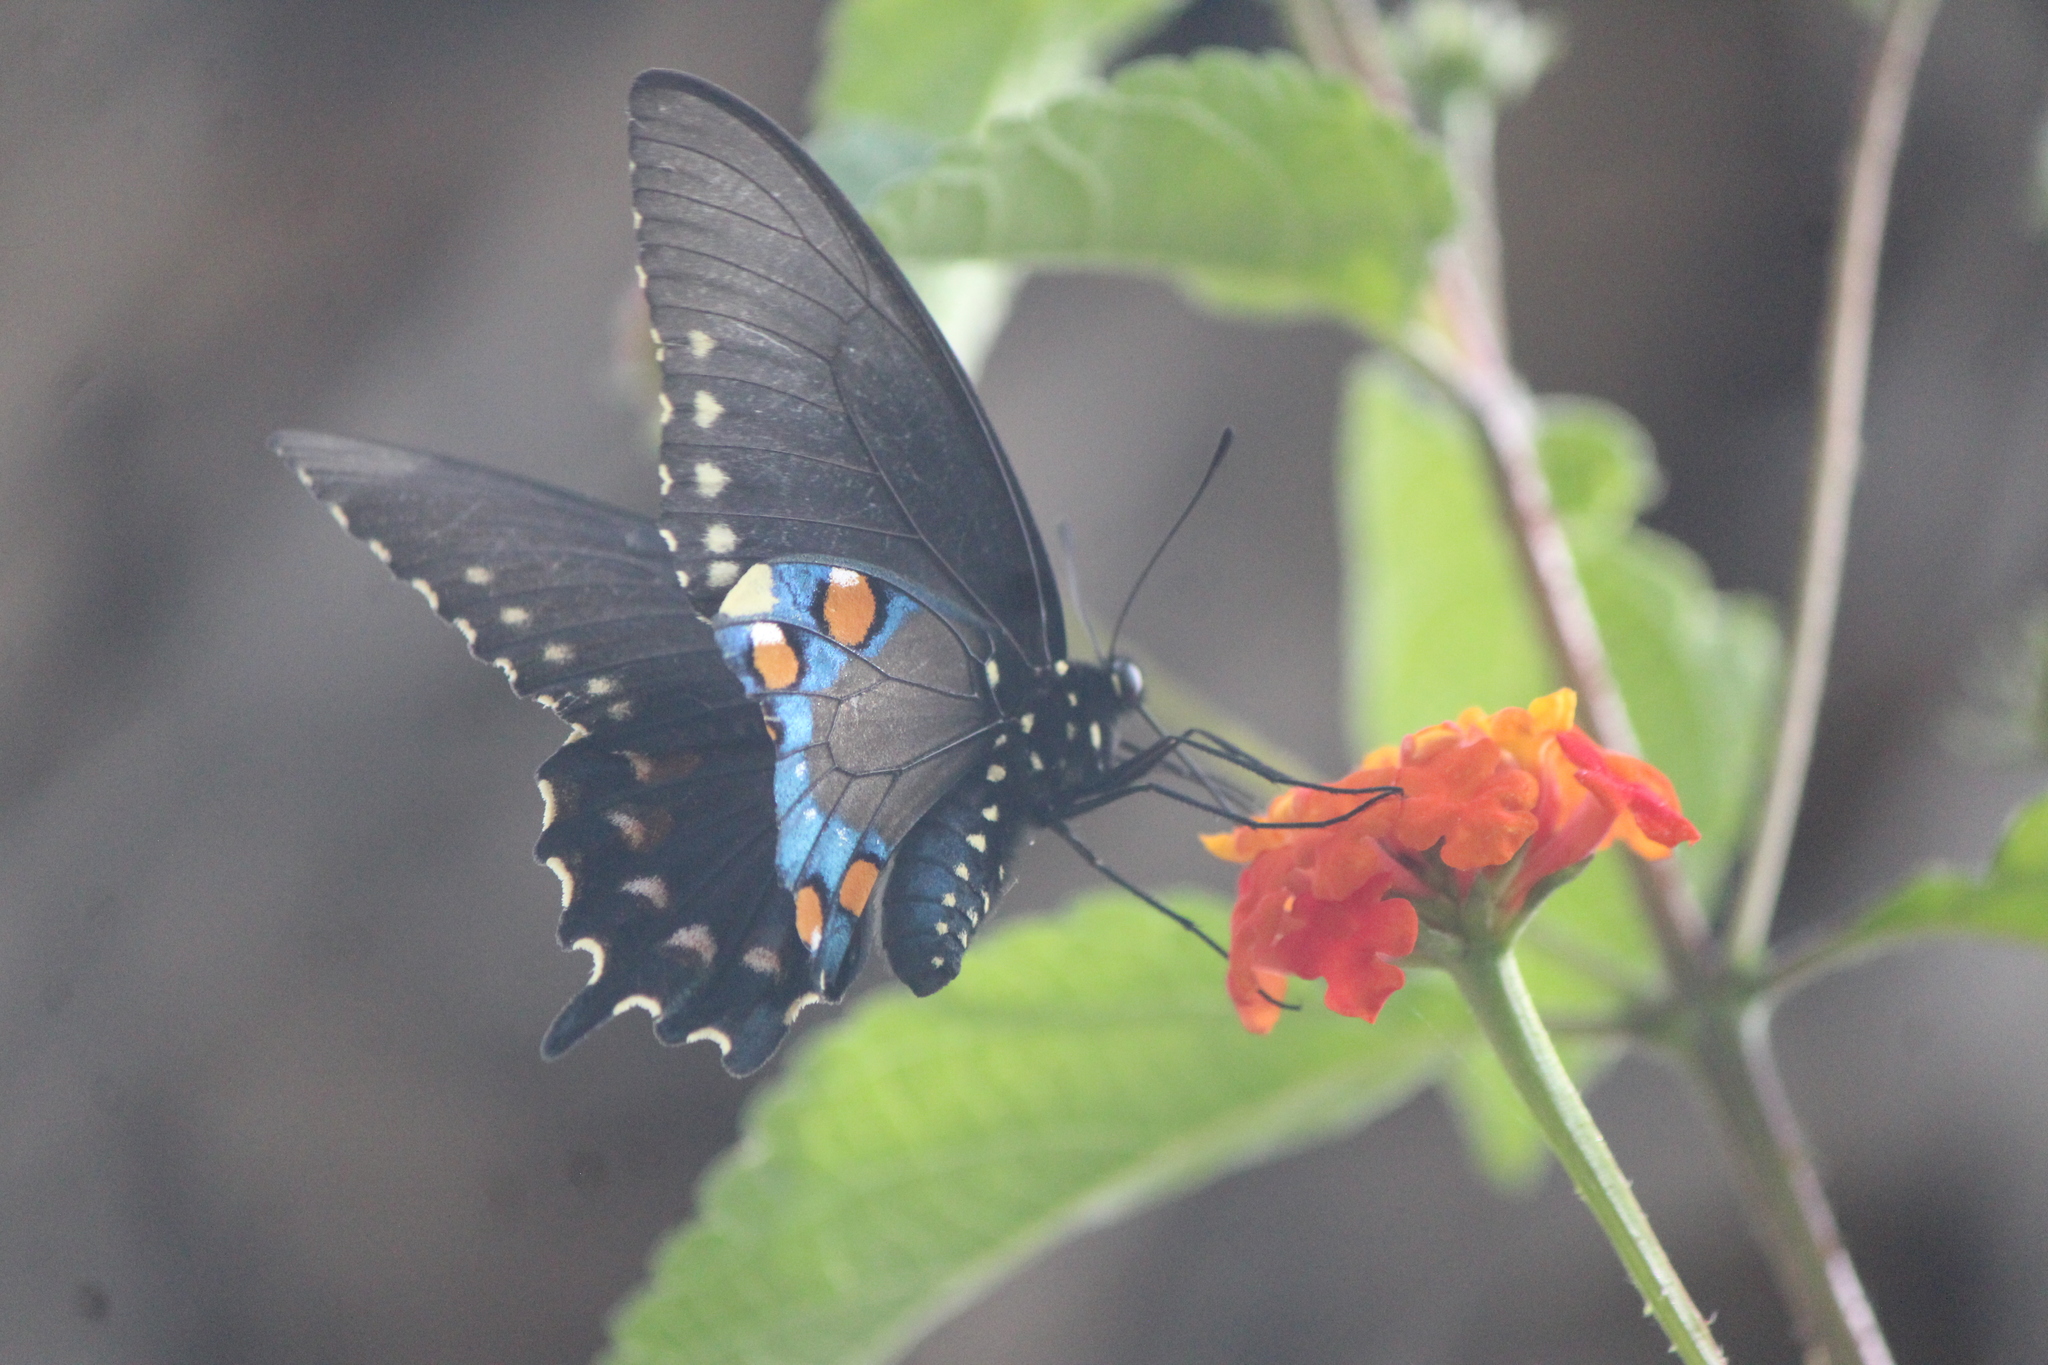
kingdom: Animalia
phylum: Arthropoda
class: Insecta
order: Lepidoptera
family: Papilionidae
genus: Battus
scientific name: Battus philenor
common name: Pipevine swallowtail
